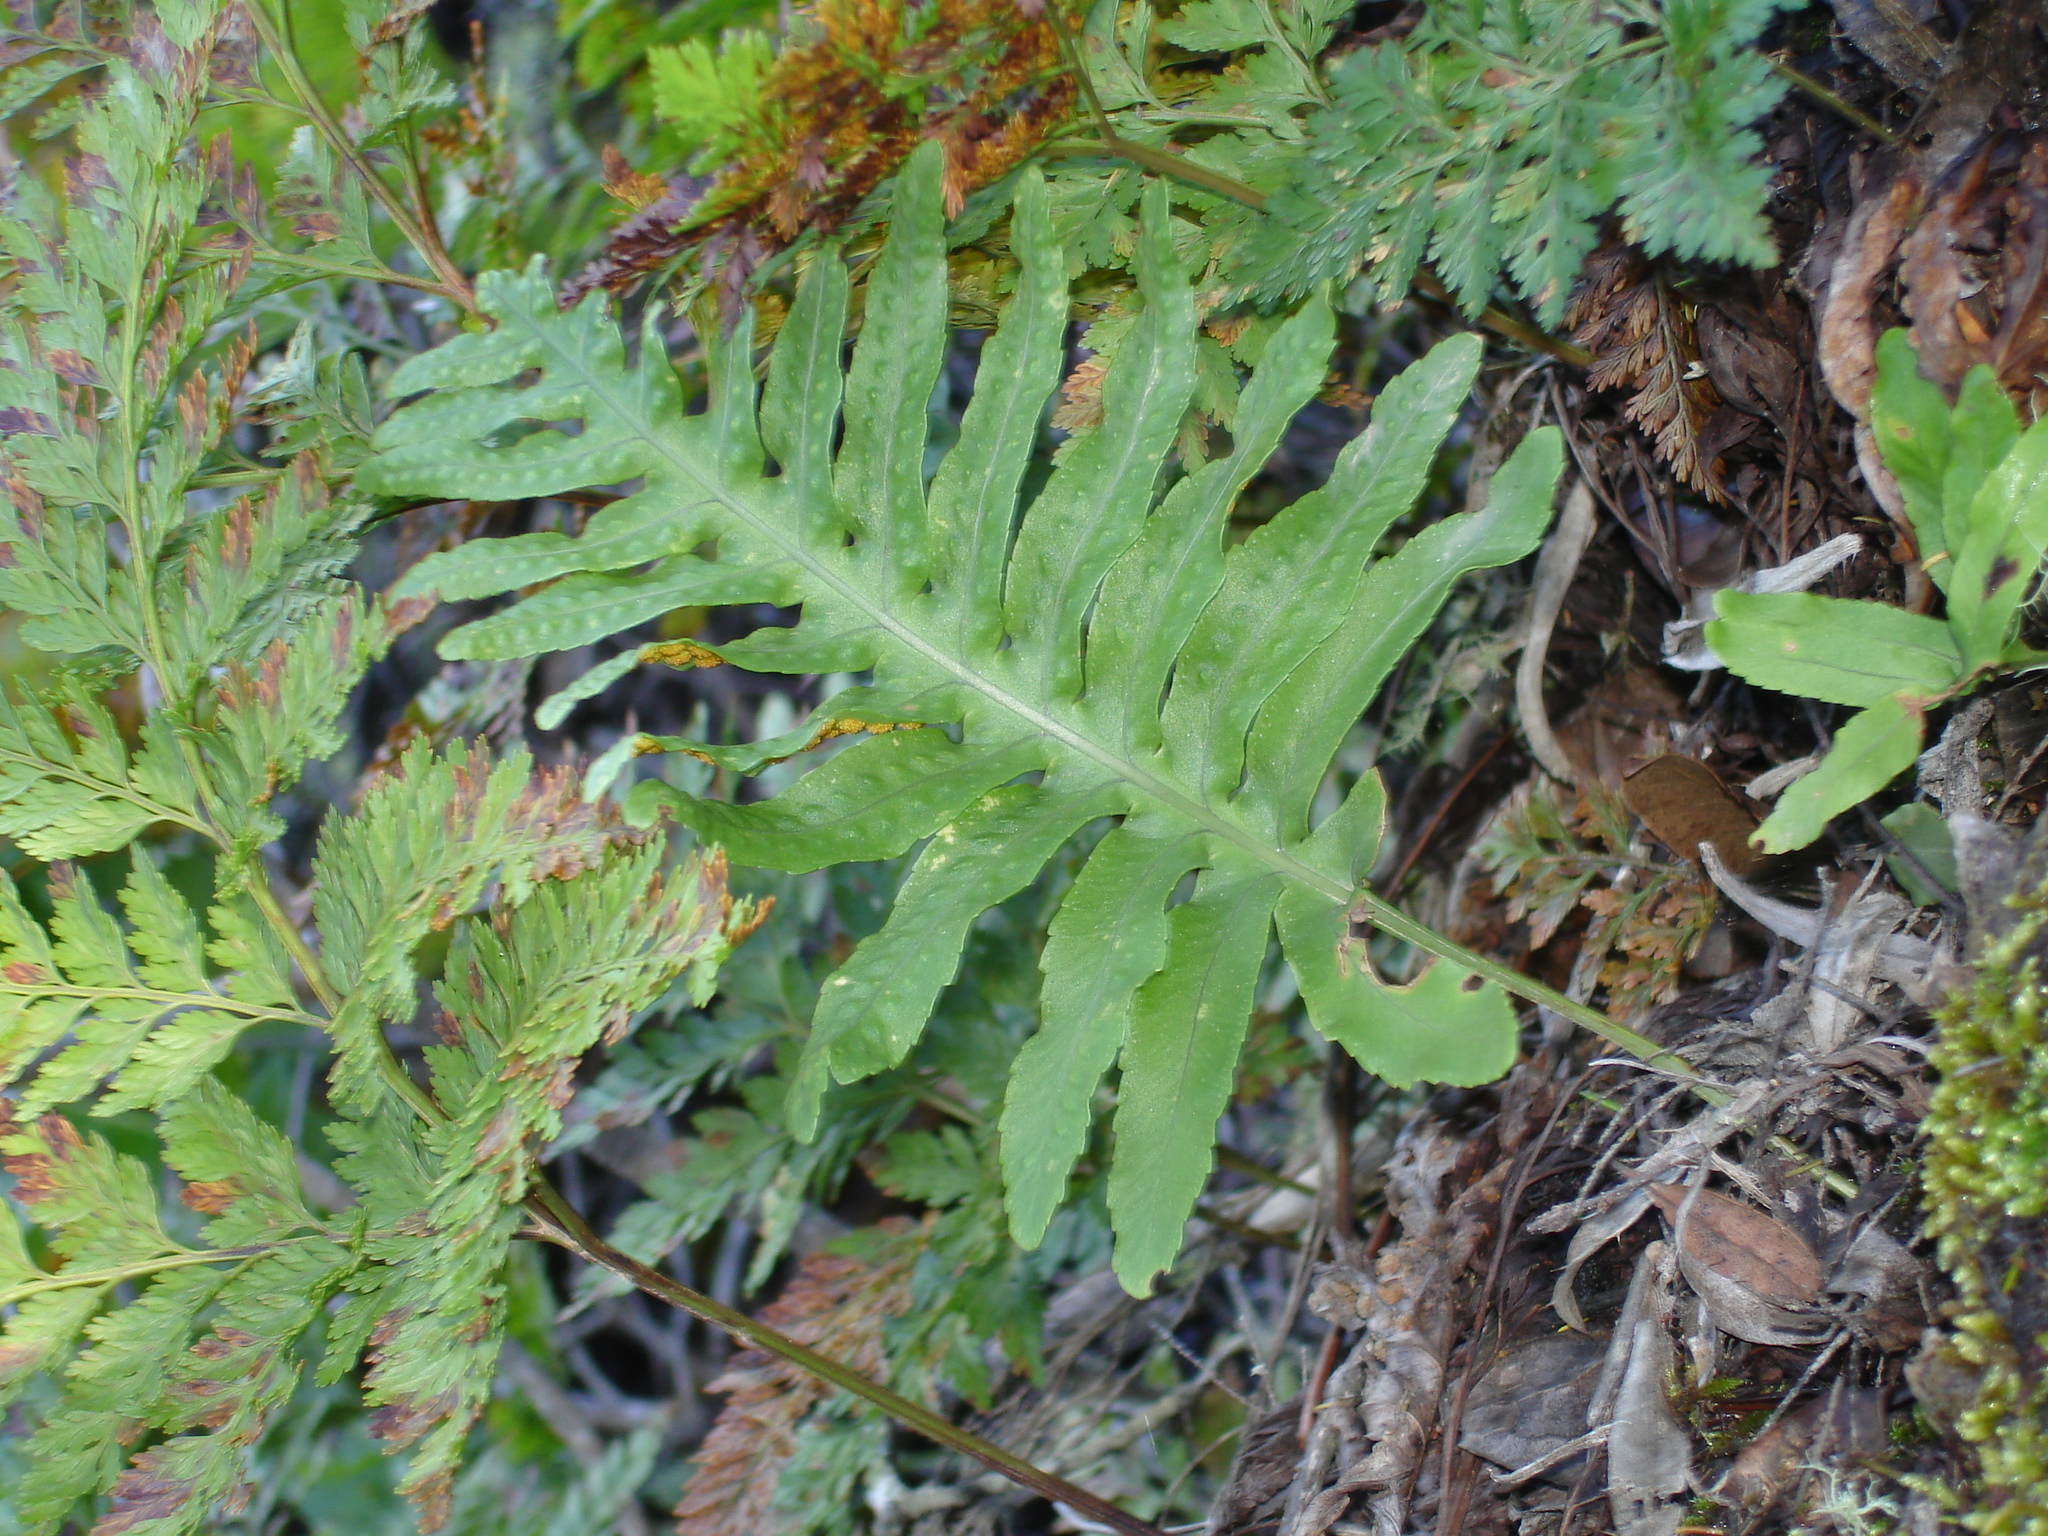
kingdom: Plantae
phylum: Tracheophyta
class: Polypodiopsida
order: Polypodiales
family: Polypodiaceae
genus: Polypodium
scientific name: Polypodium macaronesicum
